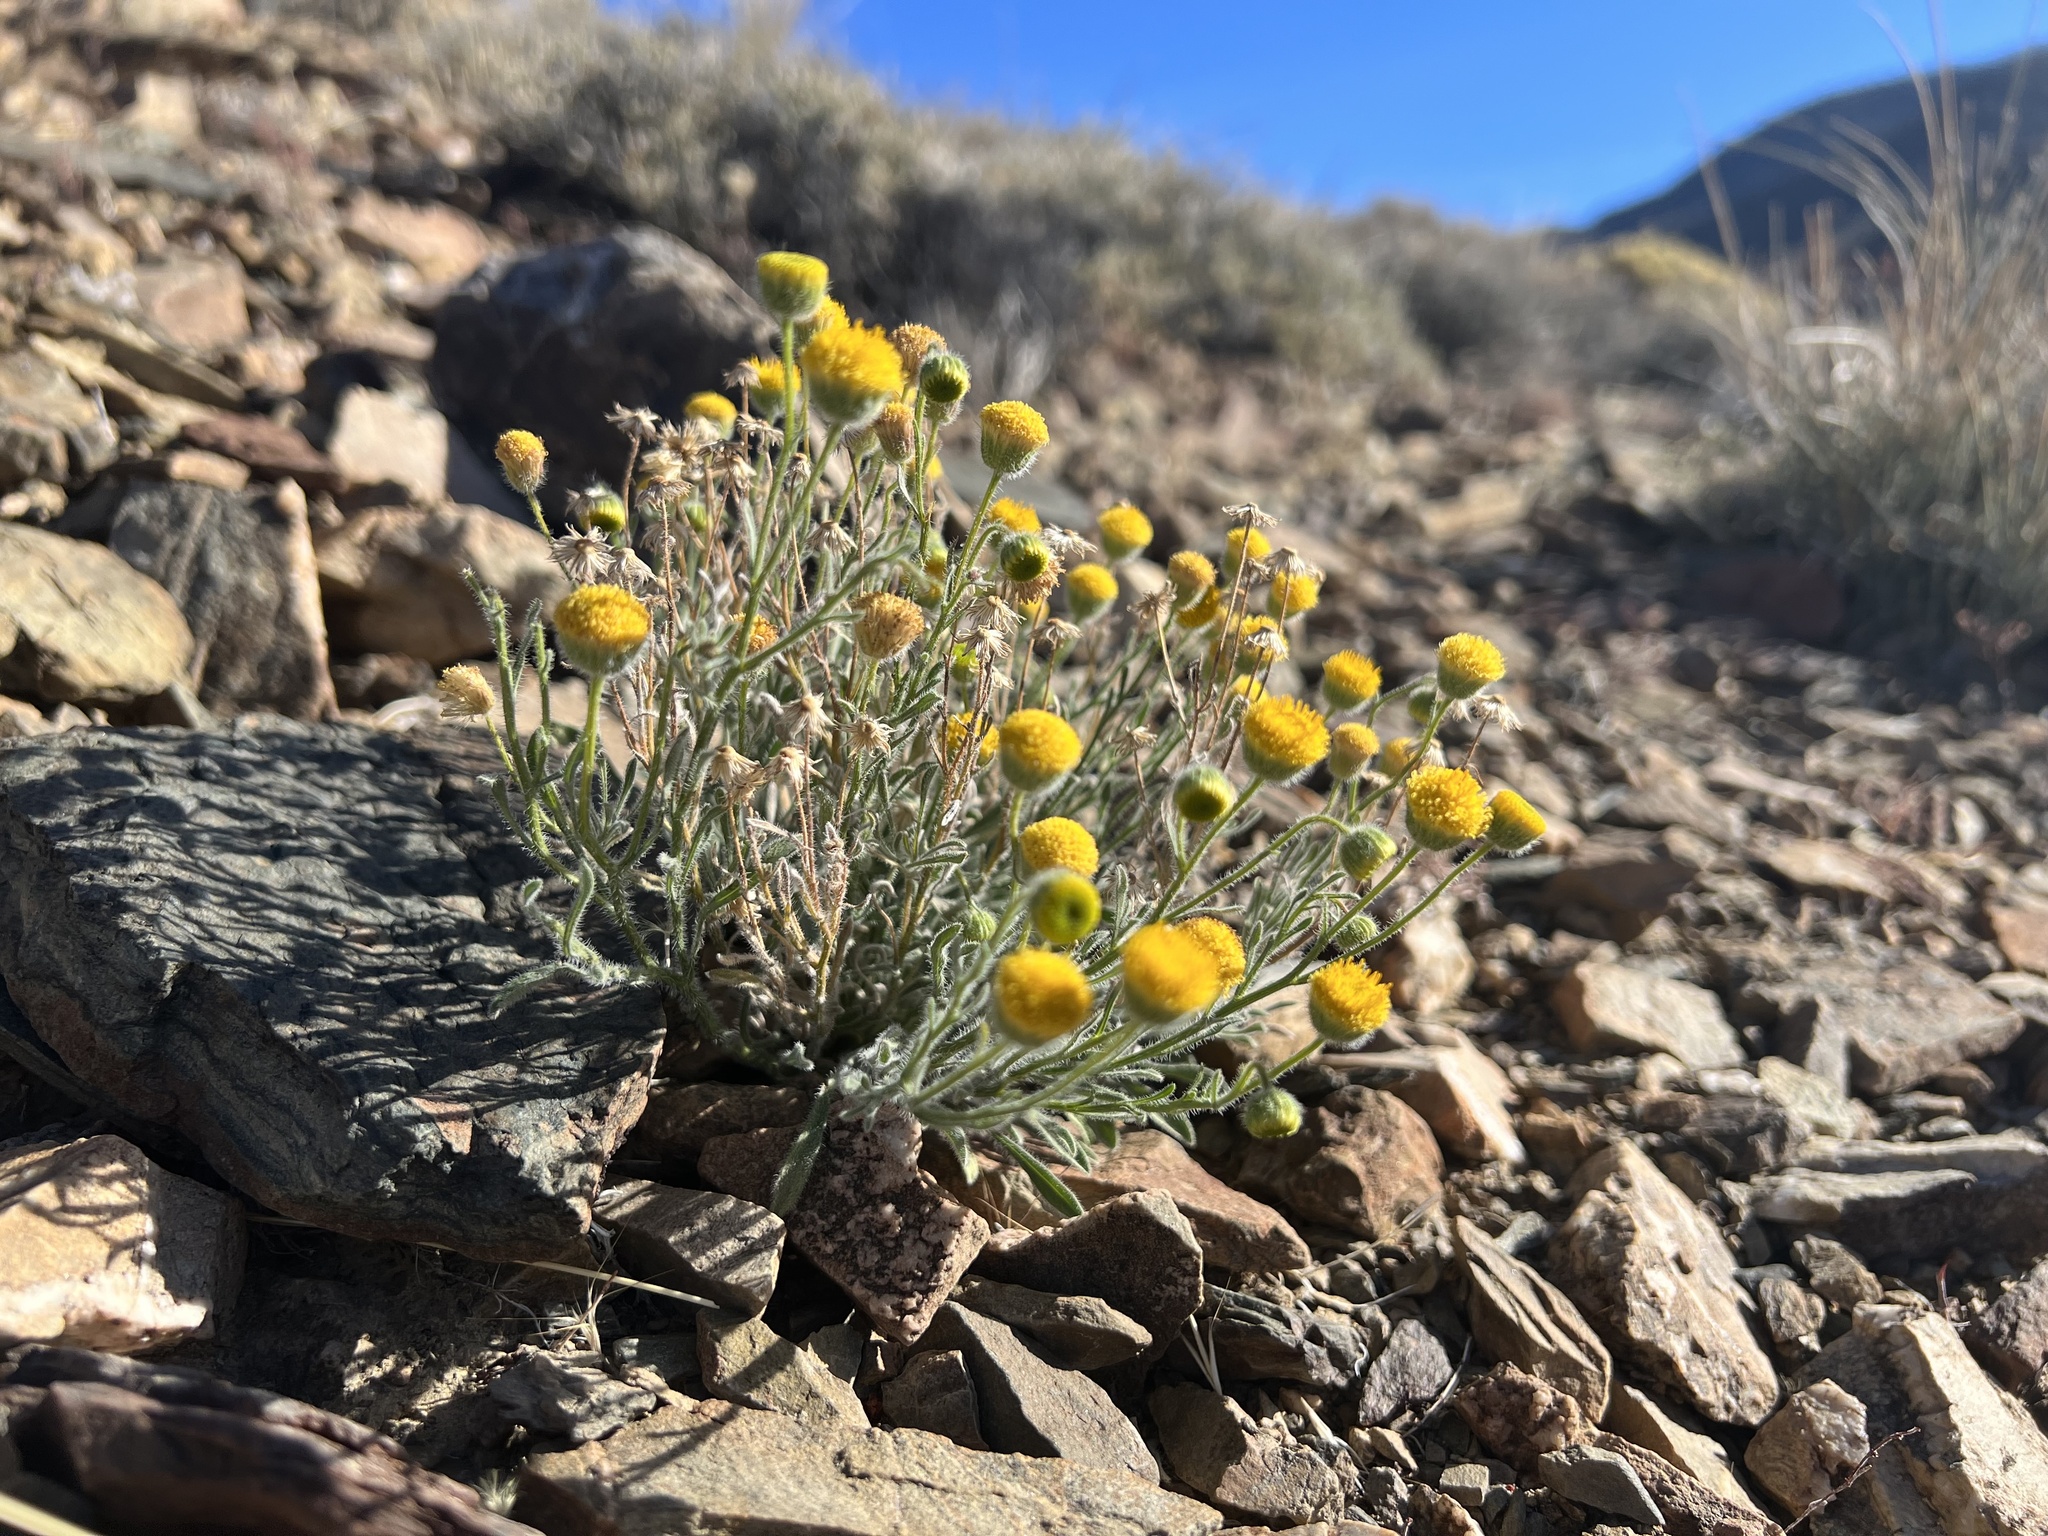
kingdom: Plantae
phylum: Tracheophyta
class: Magnoliopsida
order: Asterales
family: Asteraceae
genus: Erigeron
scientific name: Erigeron aphanactis
